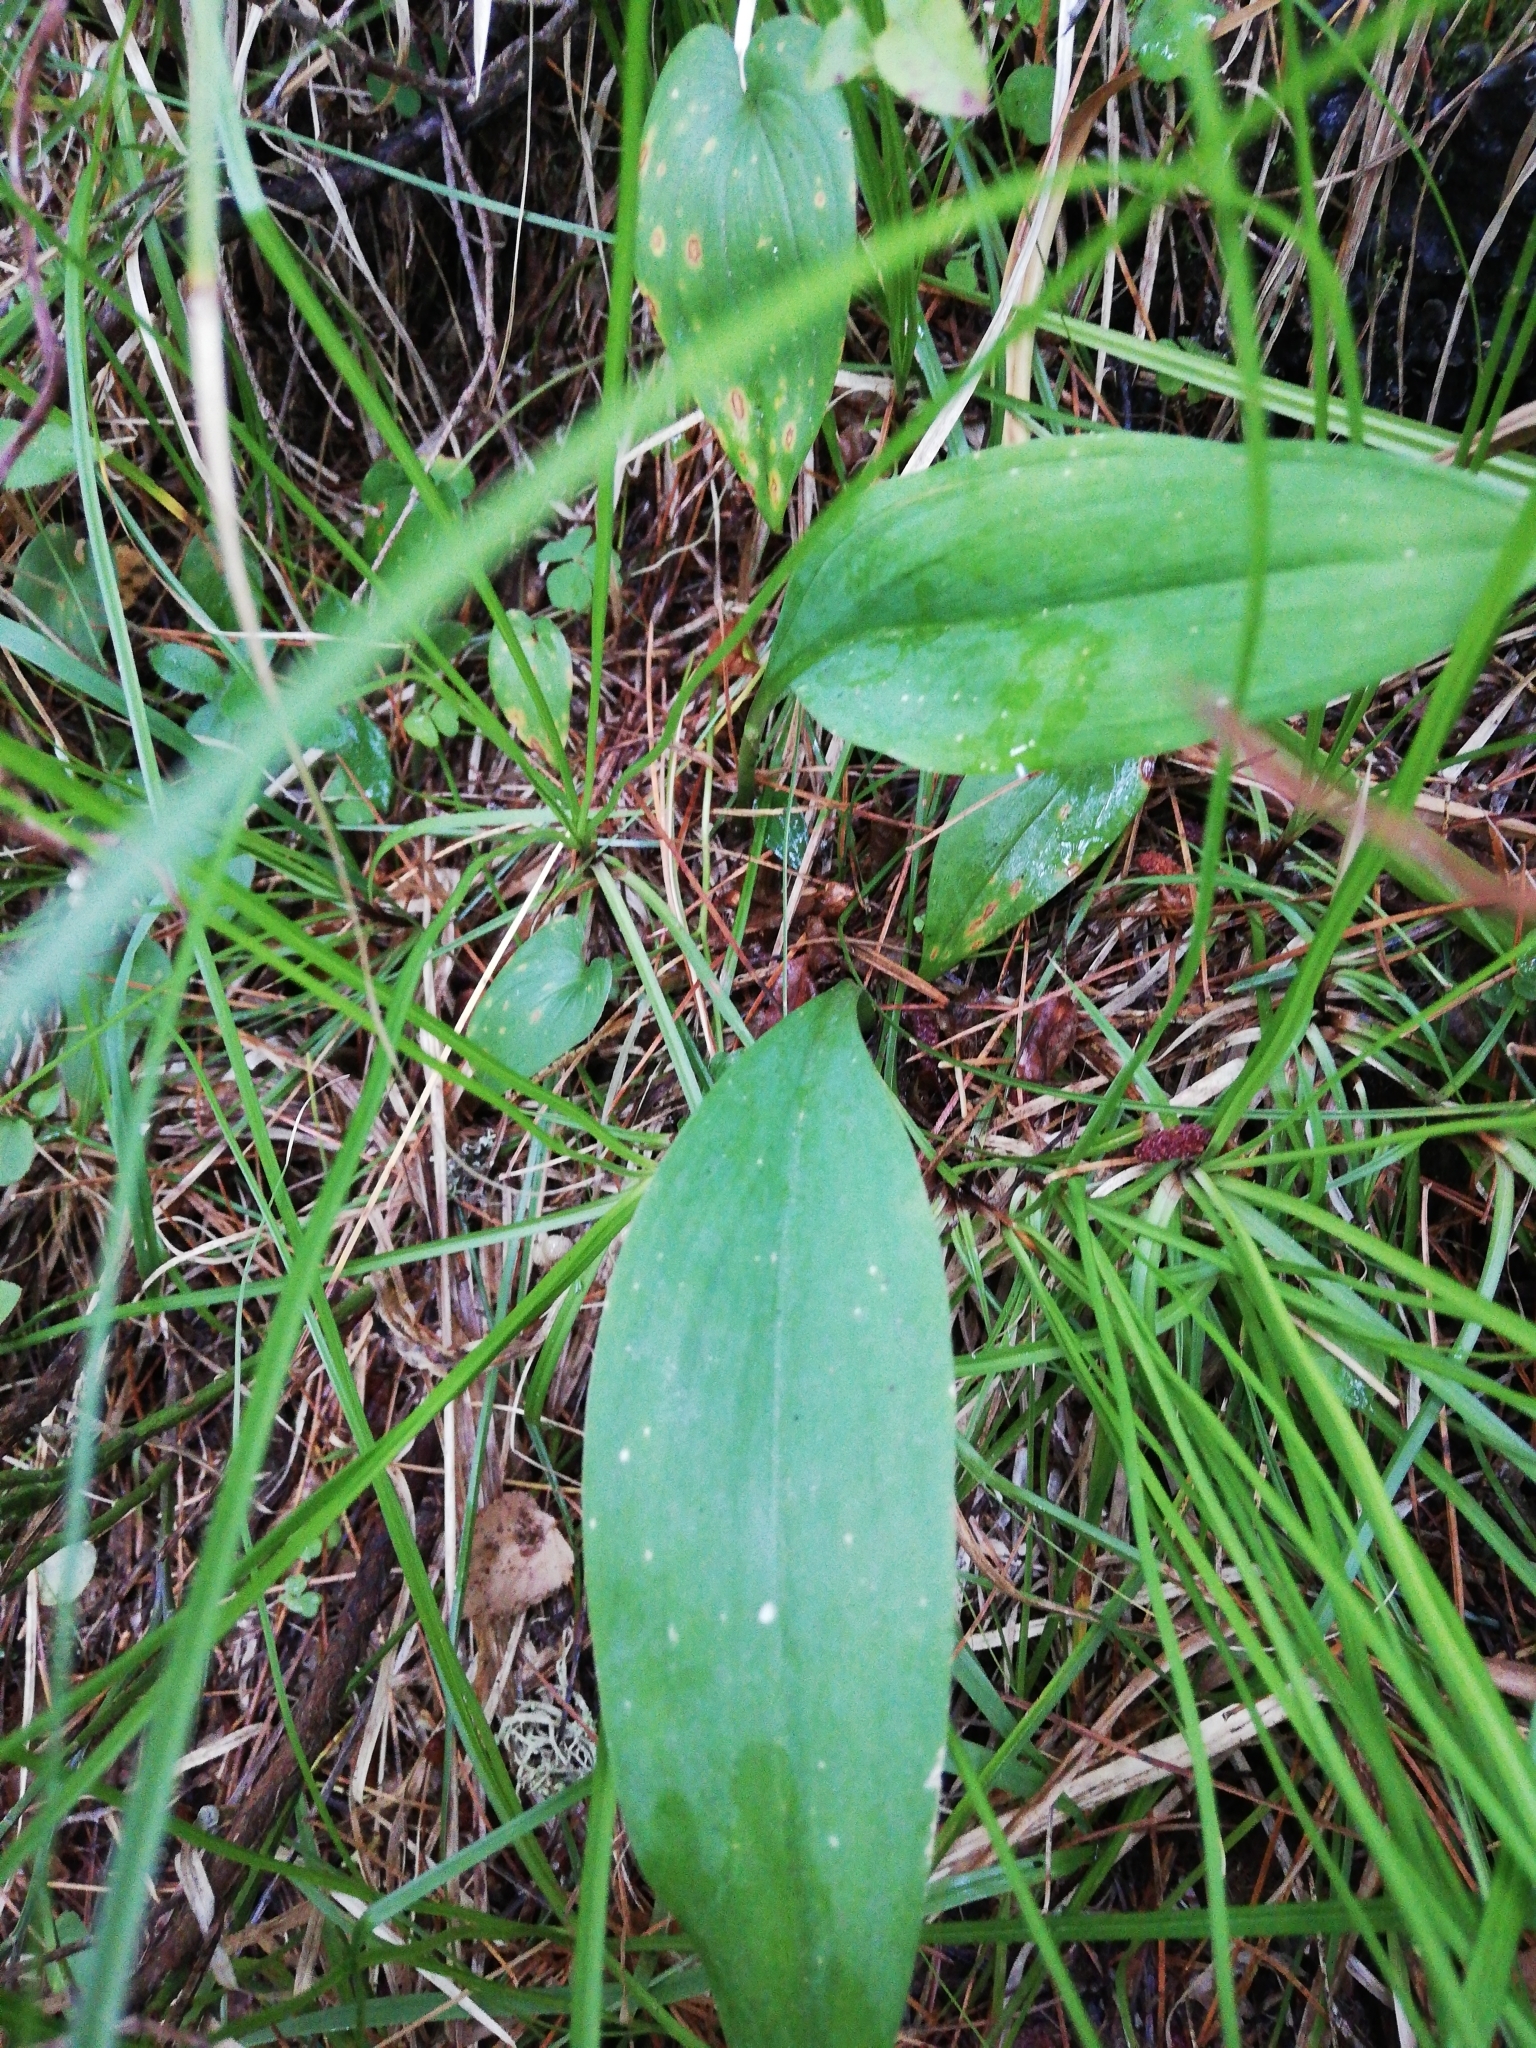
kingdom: Plantae
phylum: Tracheophyta
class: Liliopsida
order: Asparagales
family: Amaryllidaceae
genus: Allium
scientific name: Allium microdictyon
